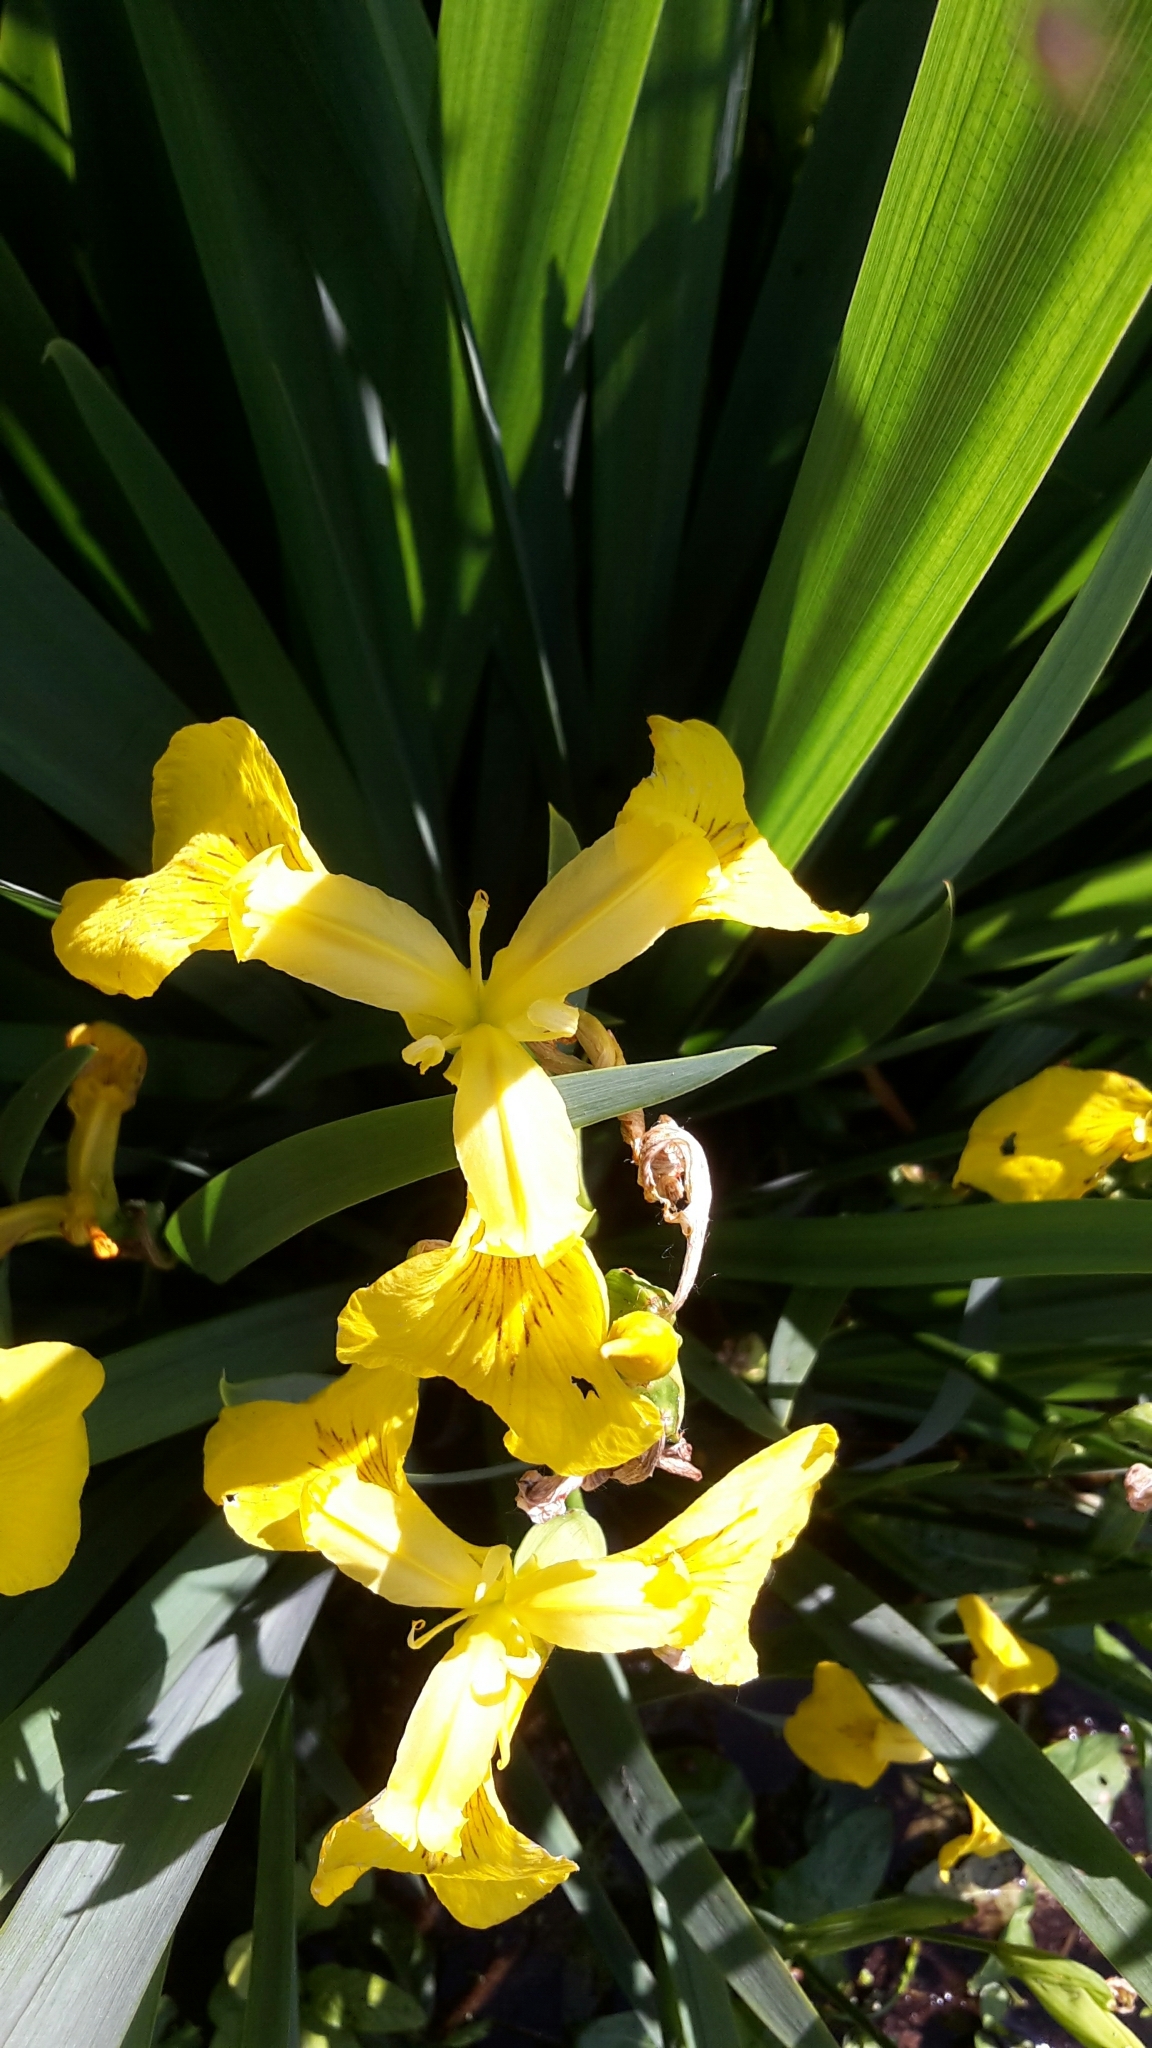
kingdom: Plantae
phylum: Tracheophyta
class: Liliopsida
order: Asparagales
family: Iridaceae
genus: Iris
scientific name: Iris pseudacorus
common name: Yellow flag
